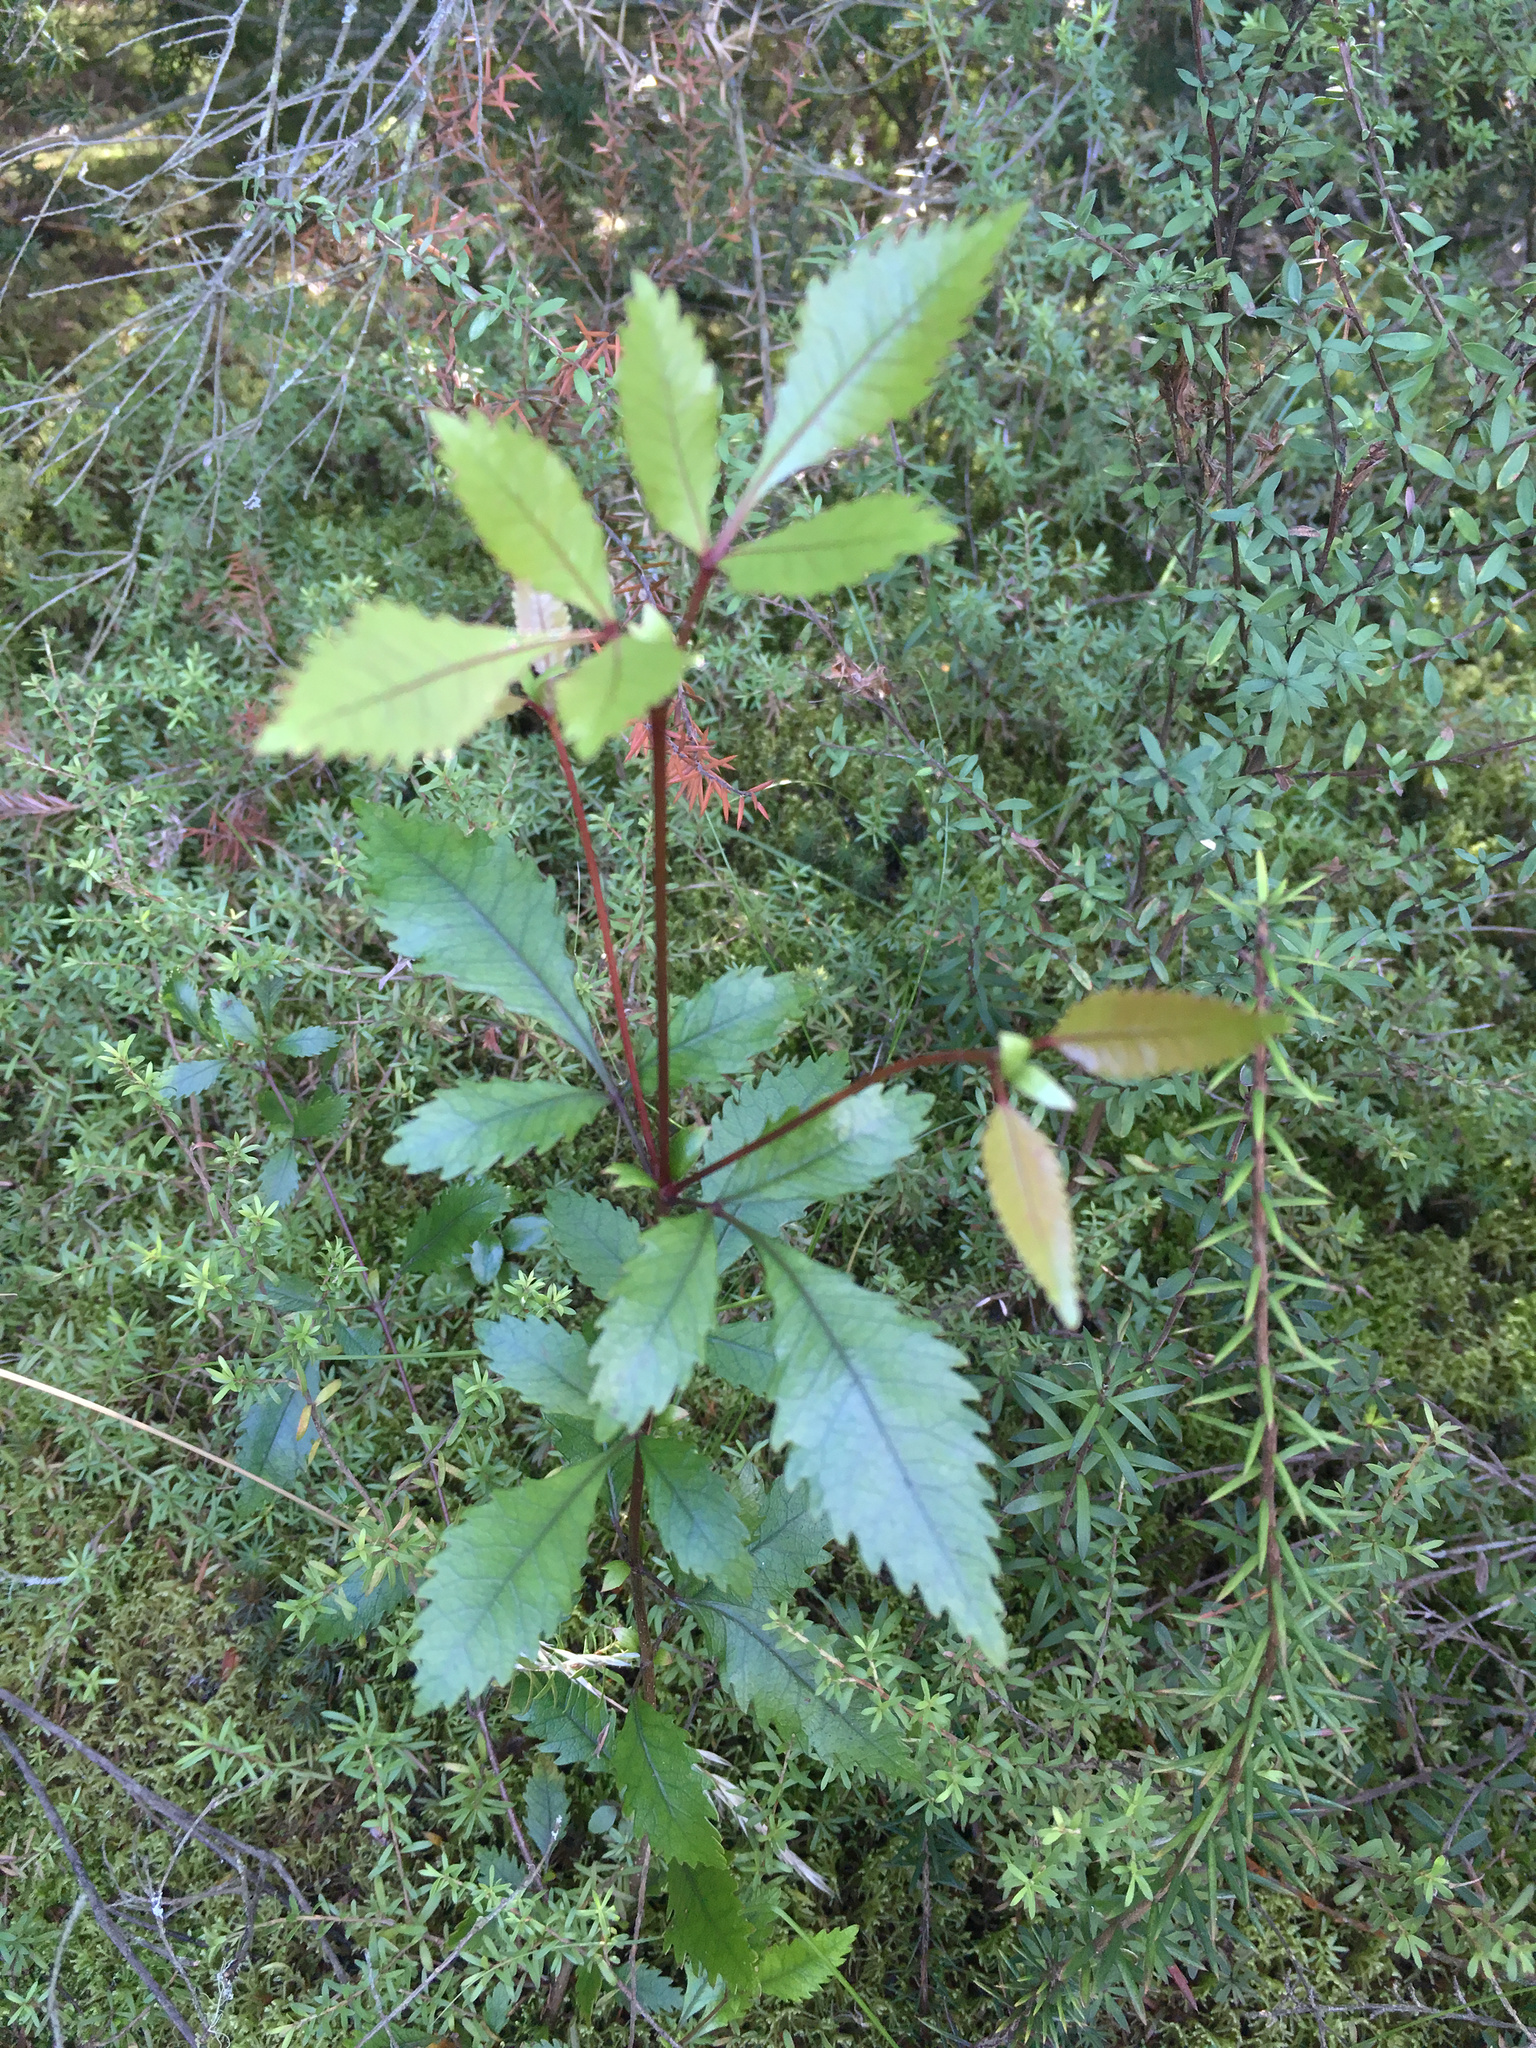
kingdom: Plantae
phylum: Tracheophyta
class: Magnoliopsida
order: Oxalidales
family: Cunoniaceae
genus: Pterophylla
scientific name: Pterophylla racemosa
